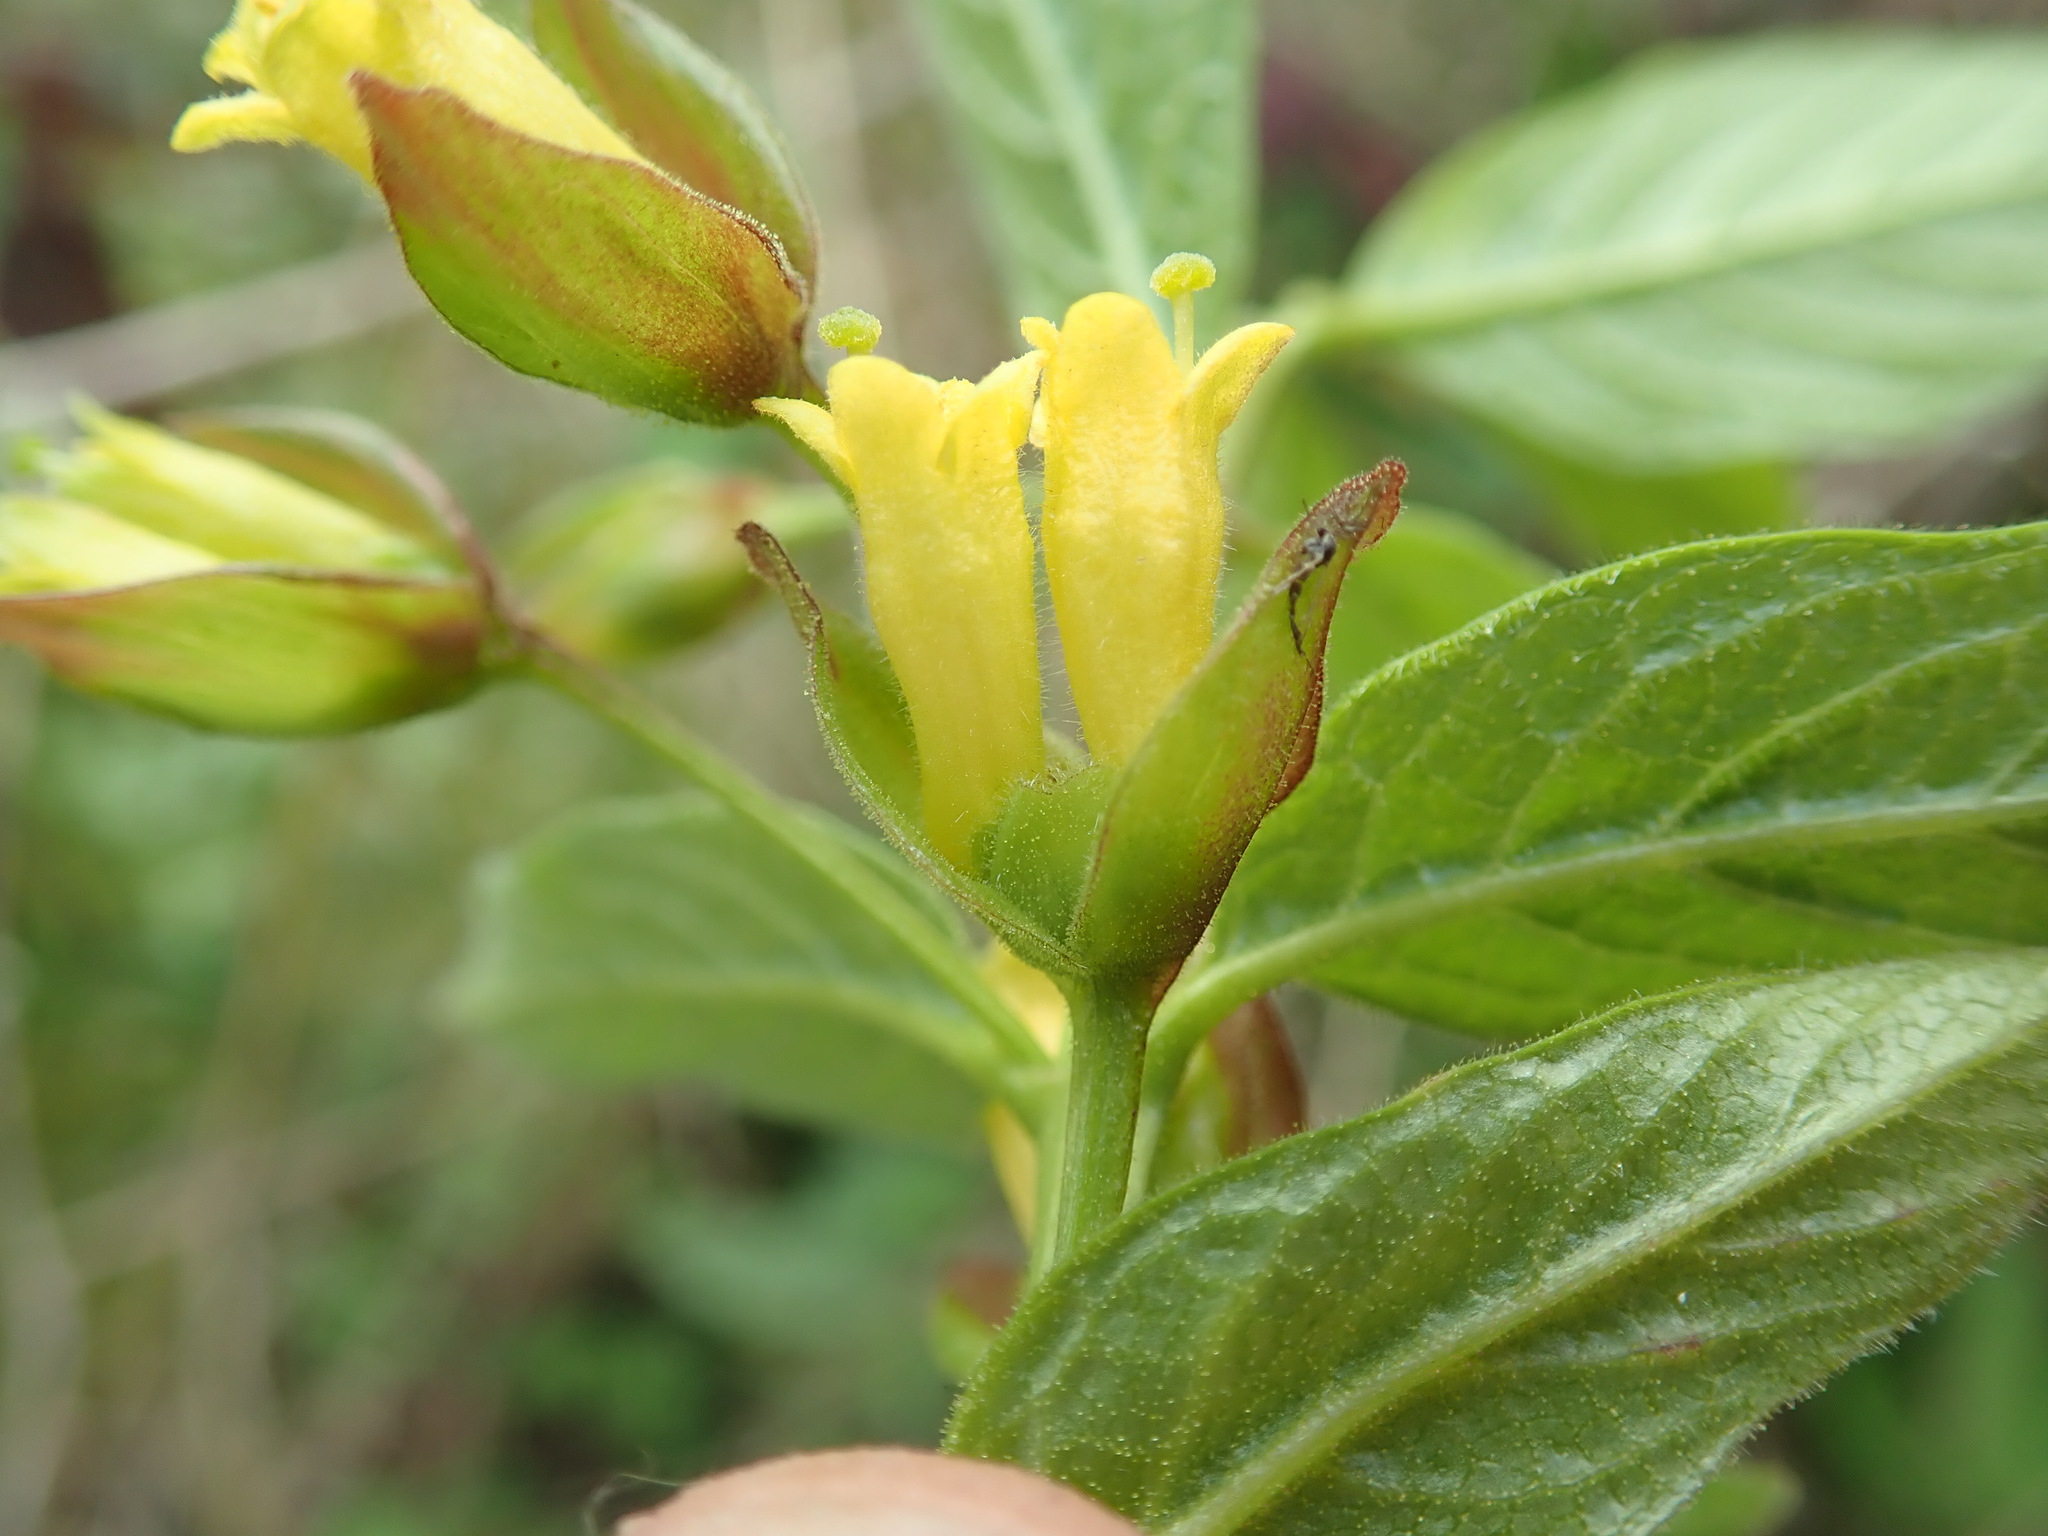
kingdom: Plantae
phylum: Tracheophyta
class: Magnoliopsida
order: Dipsacales
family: Caprifoliaceae
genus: Lonicera
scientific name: Lonicera involucrata
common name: Californian honeysuckle
